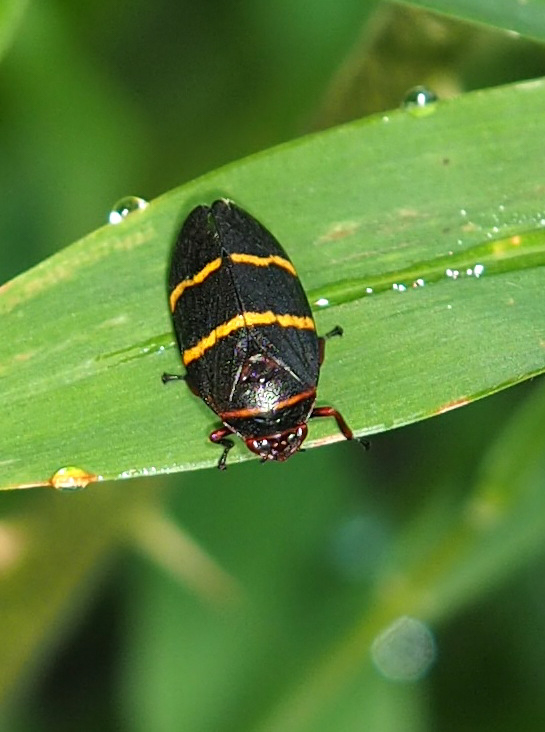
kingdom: Animalia
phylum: Arthropoda
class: Insecta
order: Hemiptera
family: Cercopidae
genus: Prosapia
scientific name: Prosapia bicincta
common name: Twolined spittlebug
